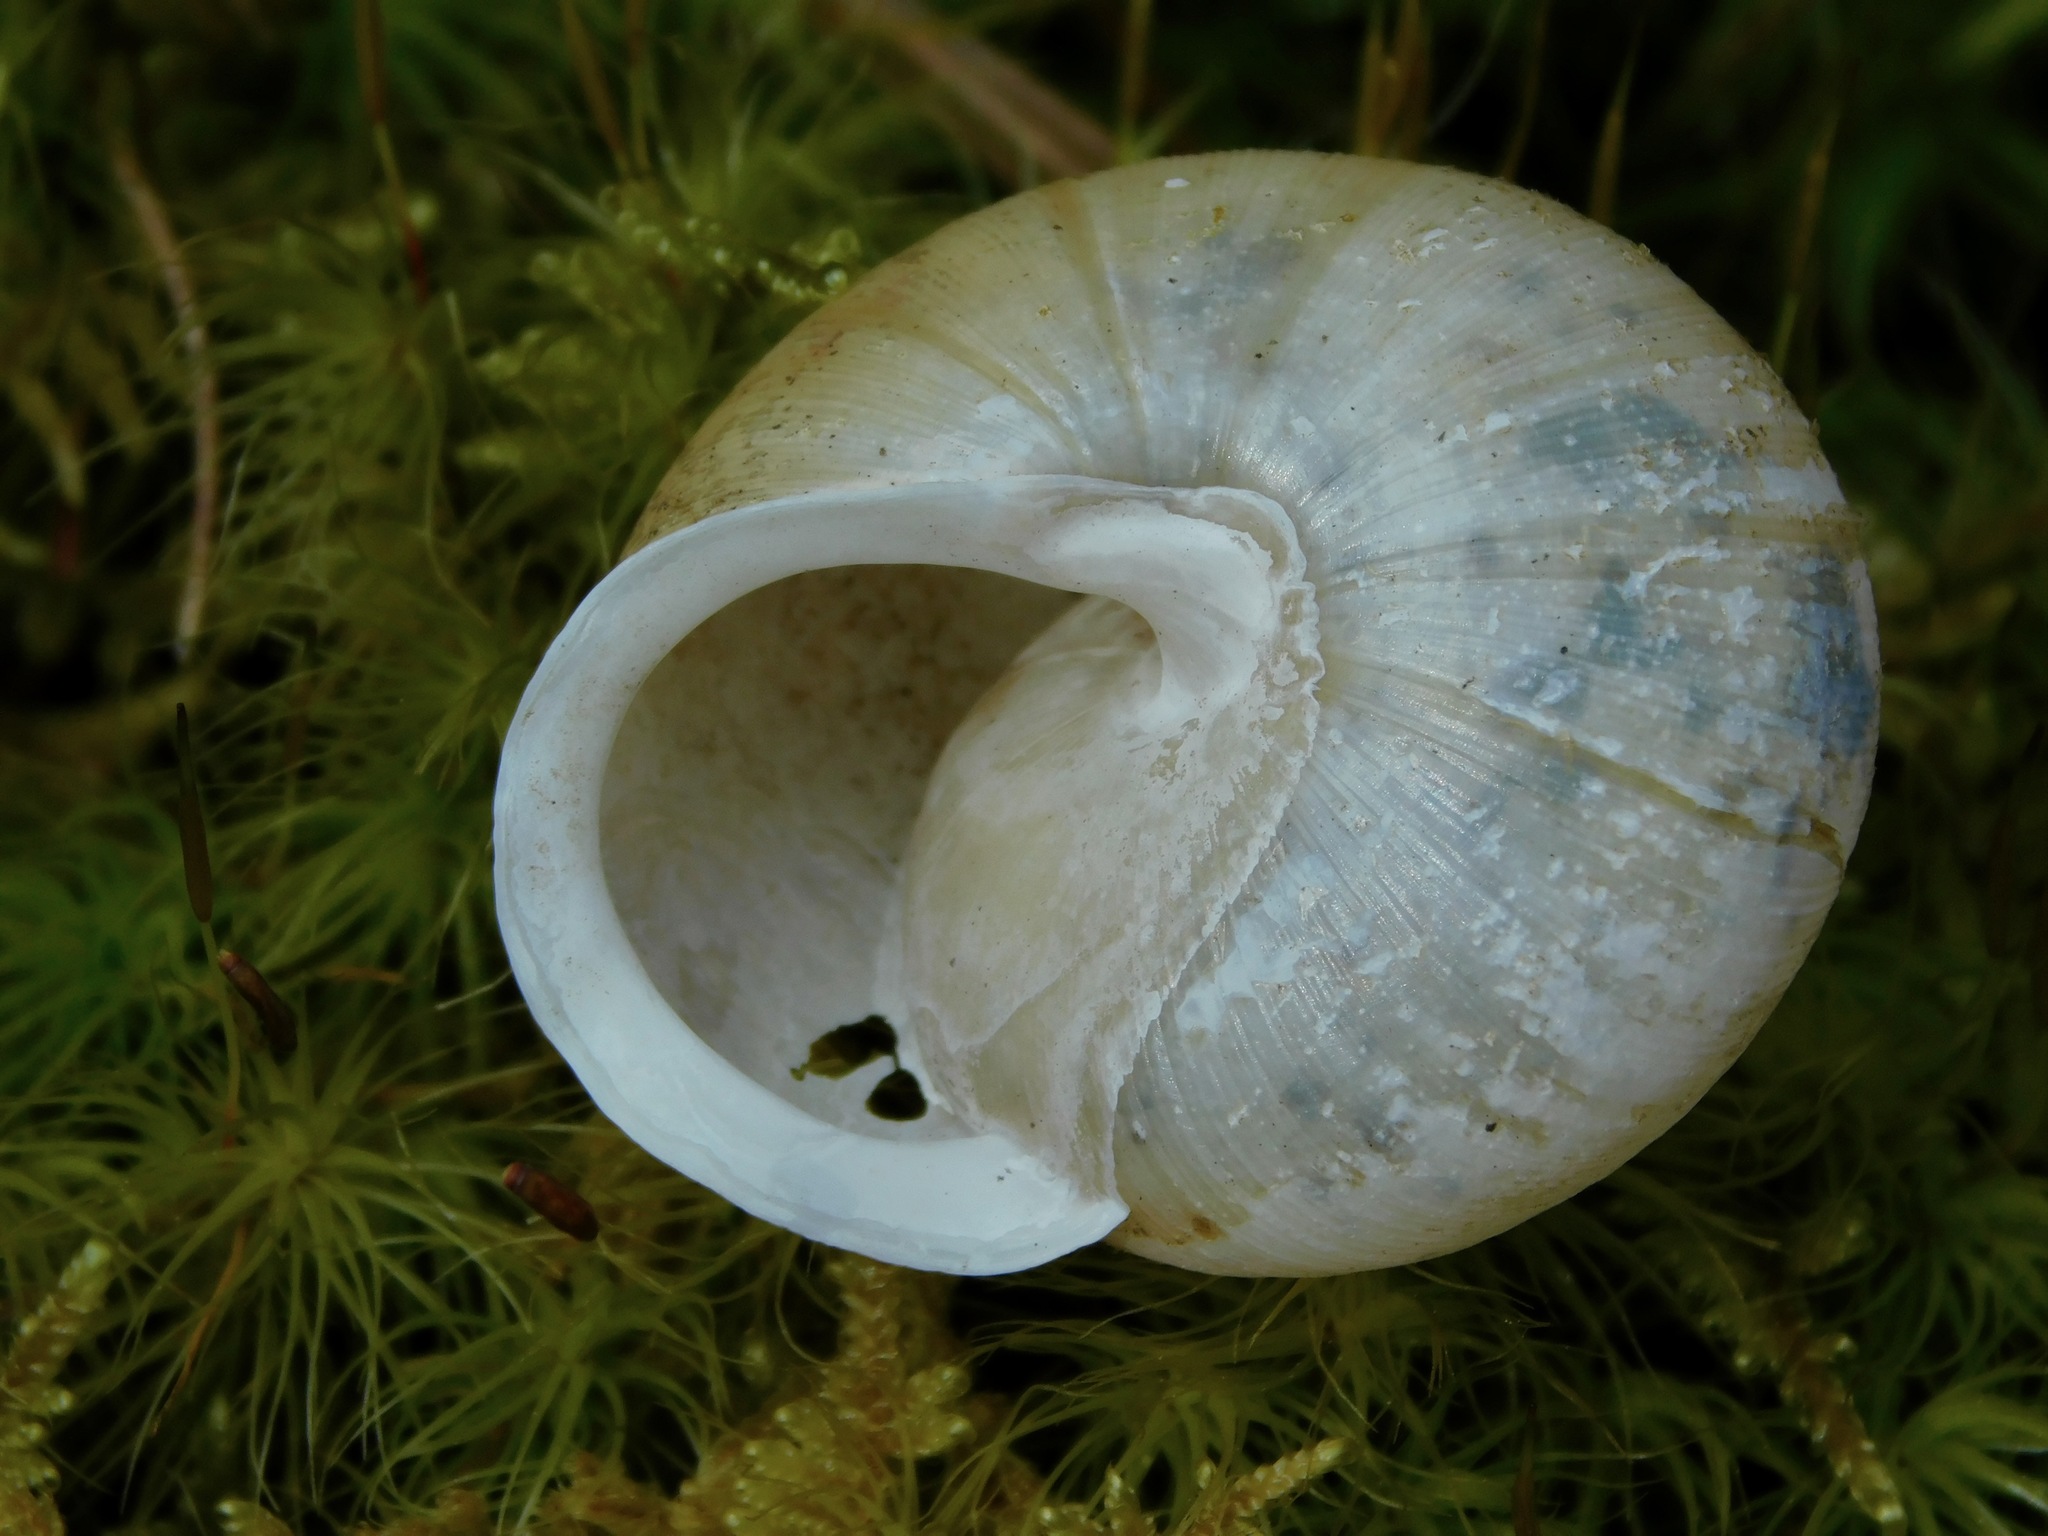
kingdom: Animalia
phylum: Mollusca
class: Gastropoda
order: Stylommatophora
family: Polygyridae
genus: Mesodon
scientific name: Mesodon normalis
